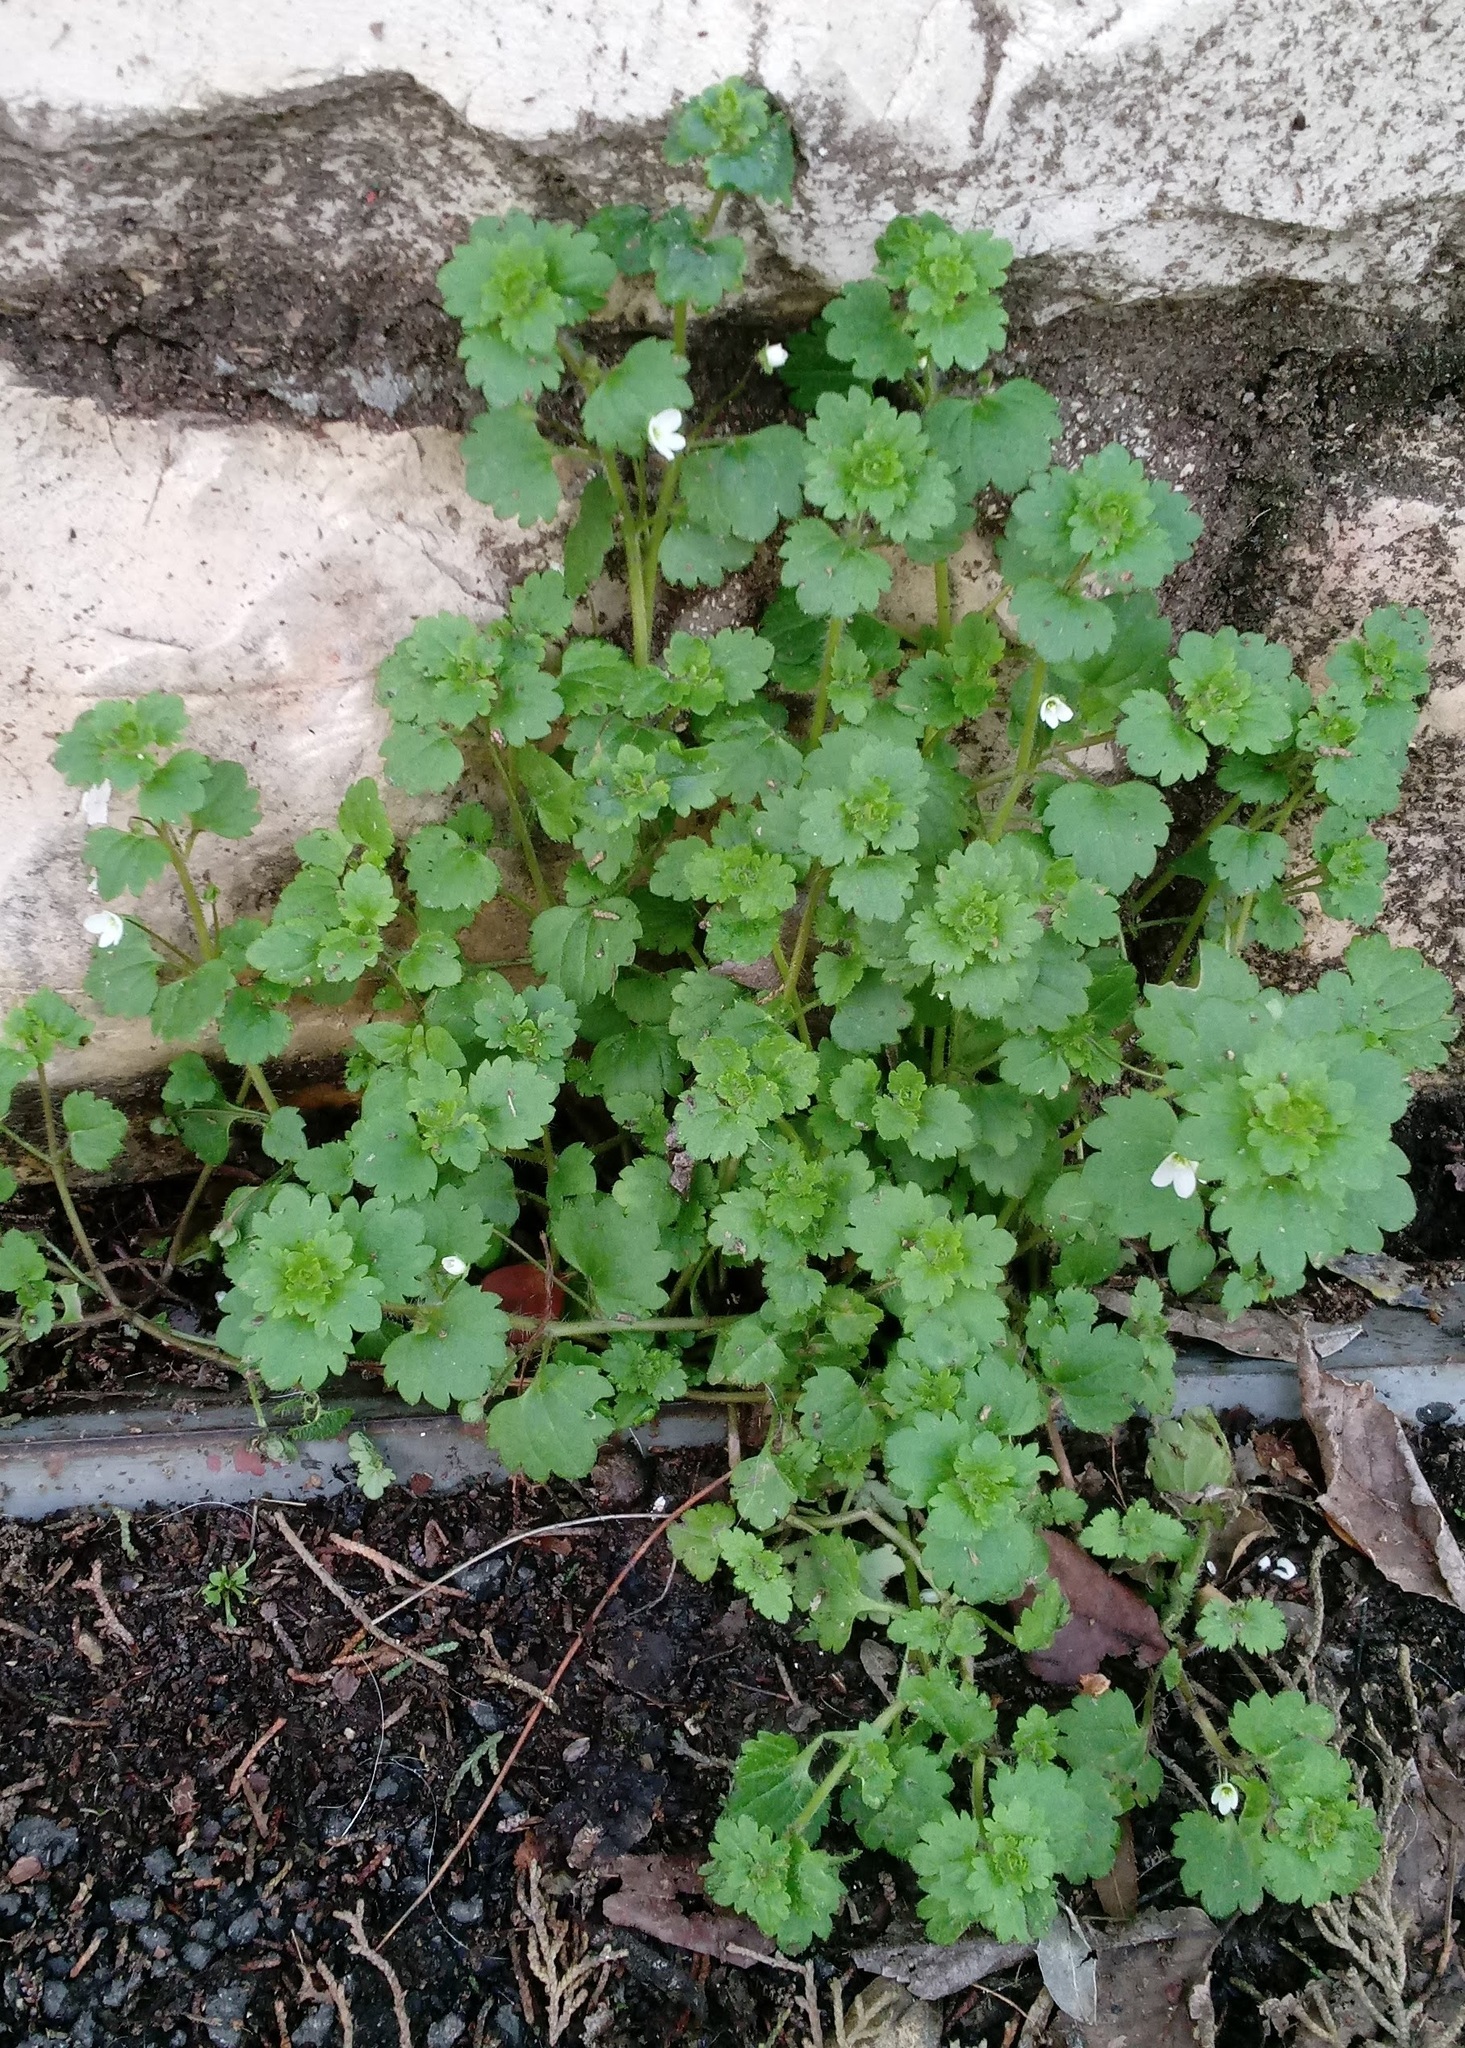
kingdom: Plantae
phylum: Tracheophyta
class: Magnoliopsida
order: Lamiales
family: Plantaginaceae
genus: Veronica
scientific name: Veronica cymbalaria
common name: Pale speedwell
